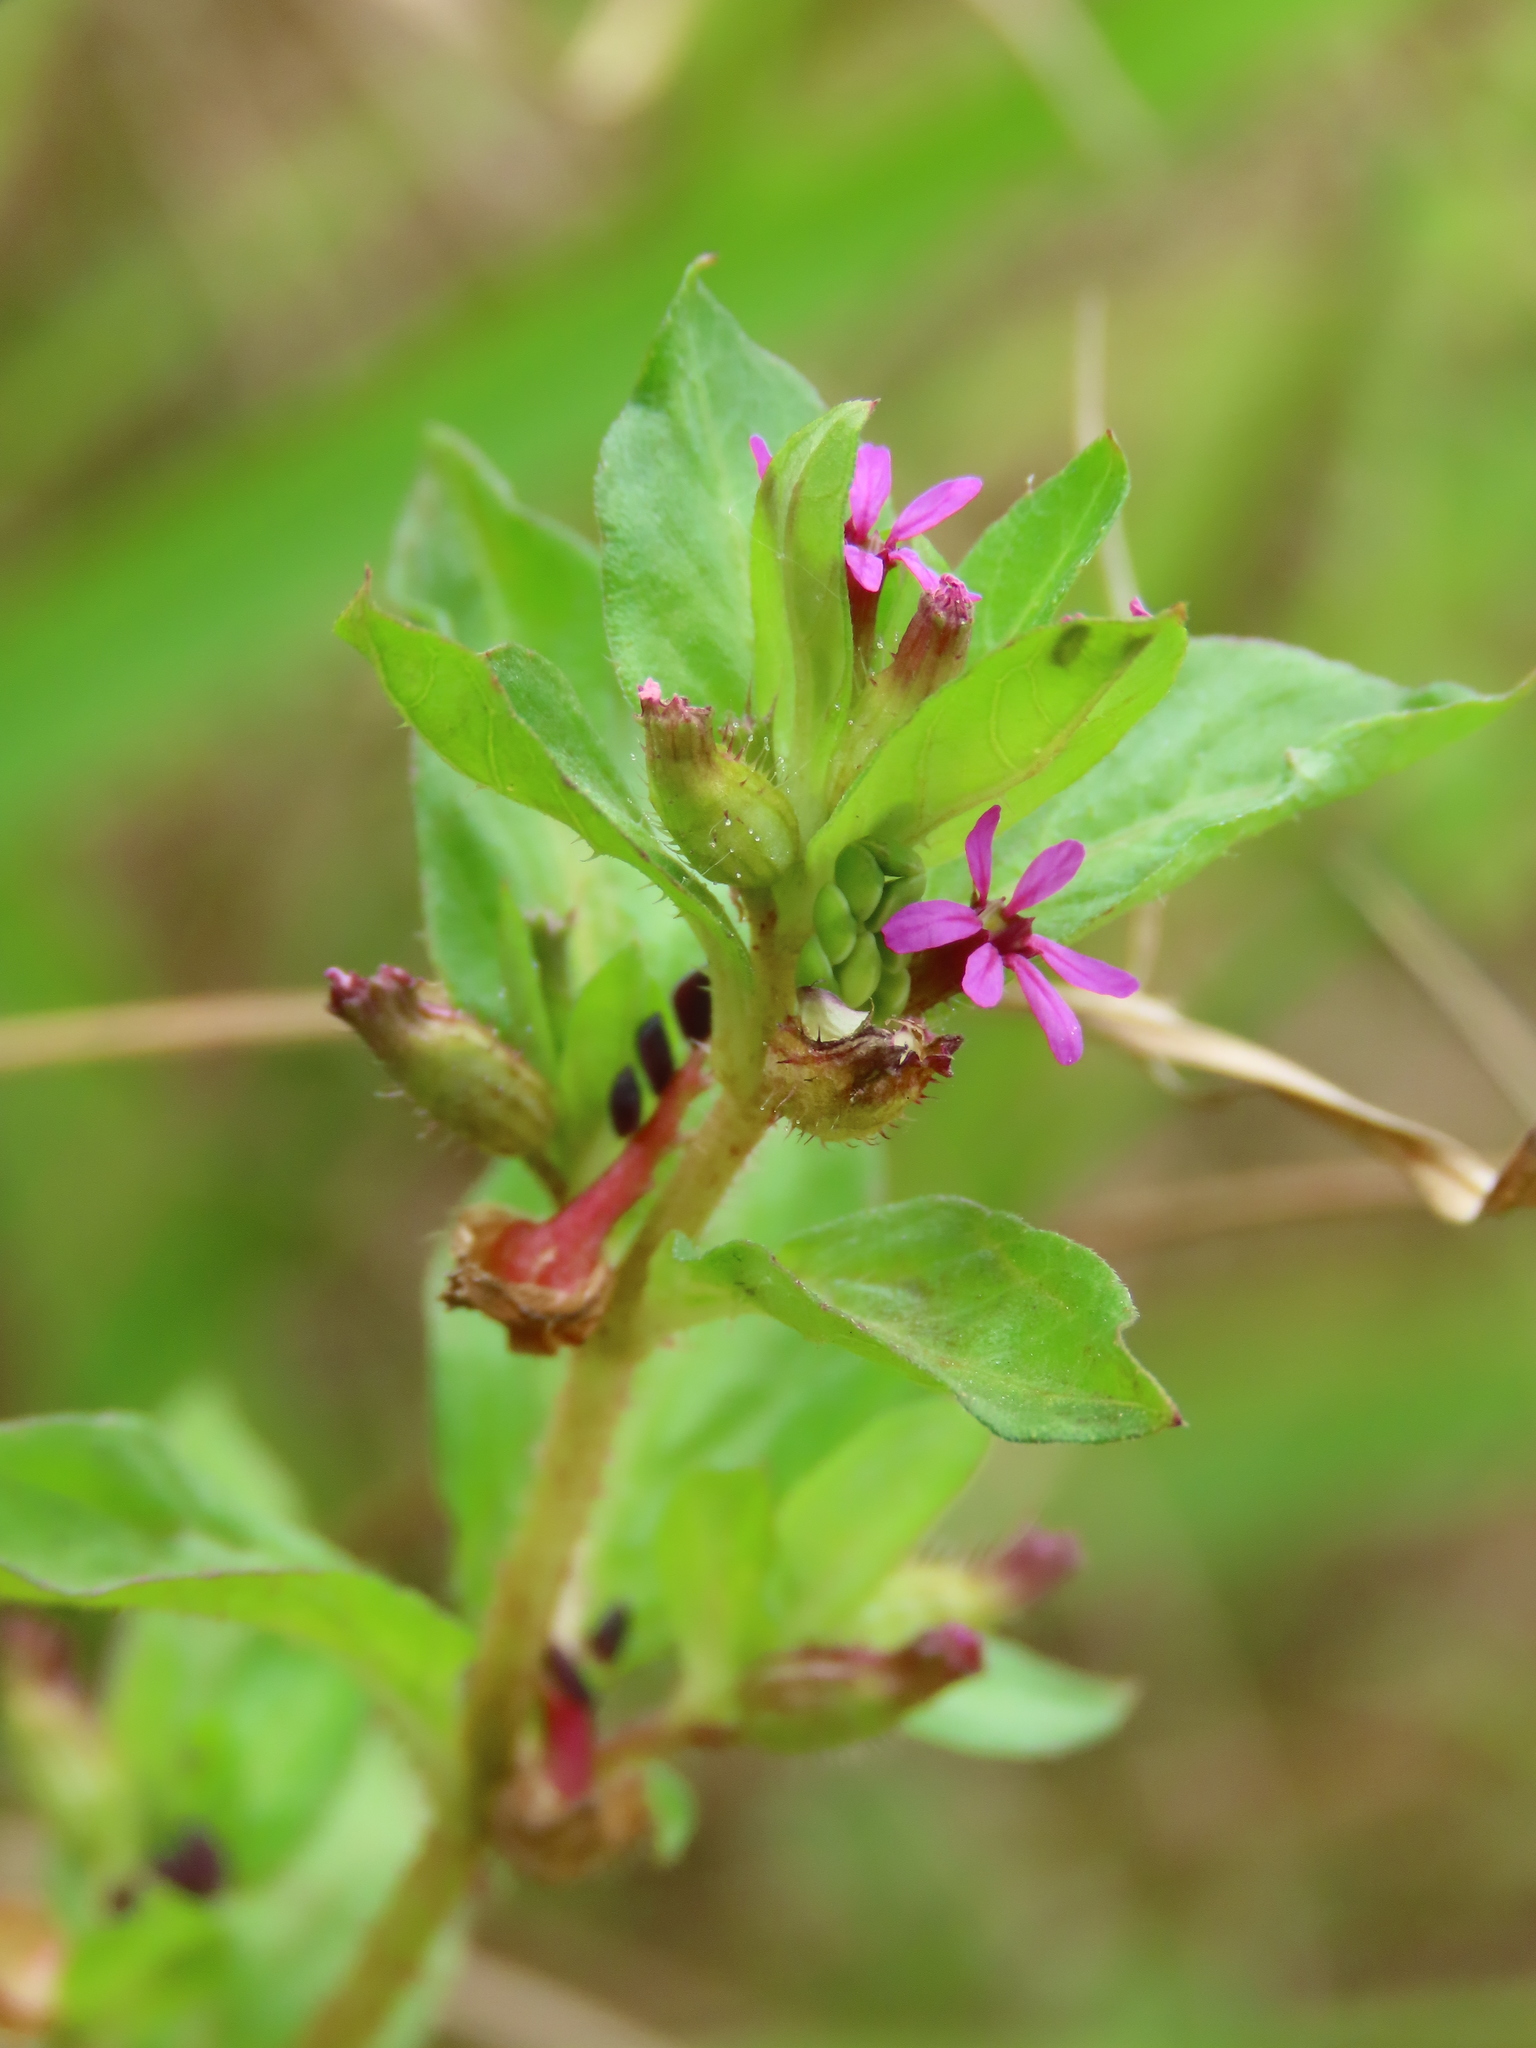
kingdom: Plantae
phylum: Tracheophyta
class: Magnoliopsida
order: Myrtales
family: Lythraceae
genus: Cuphea
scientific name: Cuphea carthagenensis
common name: Colombian waxweed
